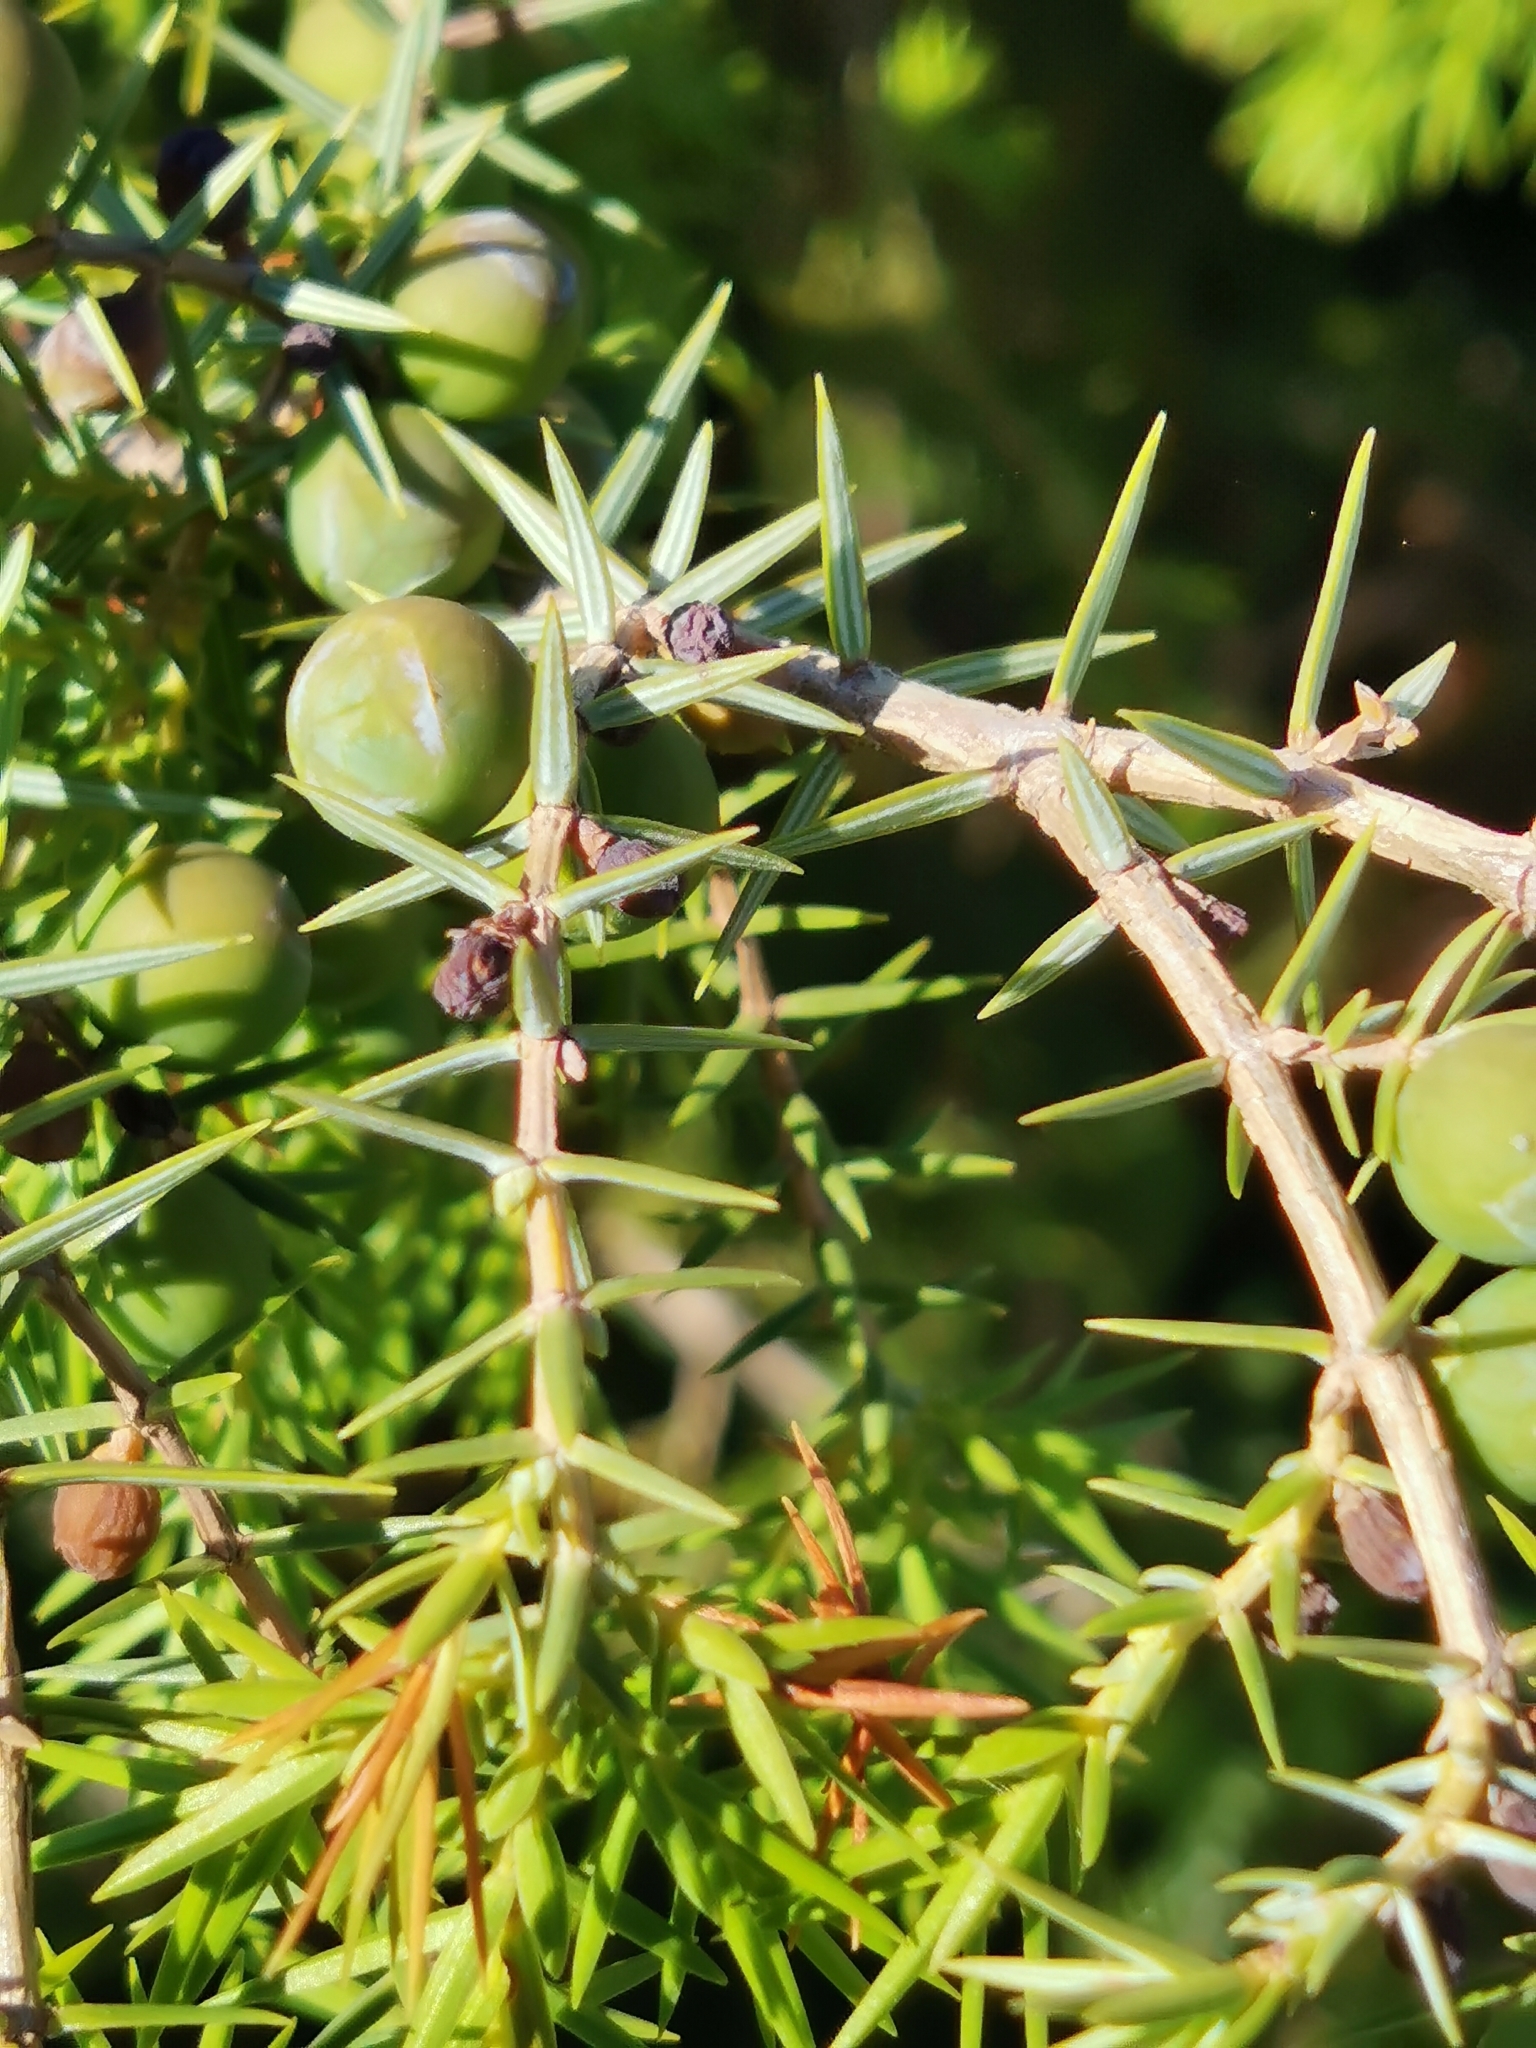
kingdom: Plantae
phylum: Tracheophyta
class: Pinopsida
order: Pinales
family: Cupressaceae
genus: Juniperus
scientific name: Juniperus oxycedrus
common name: Prickly juniper
